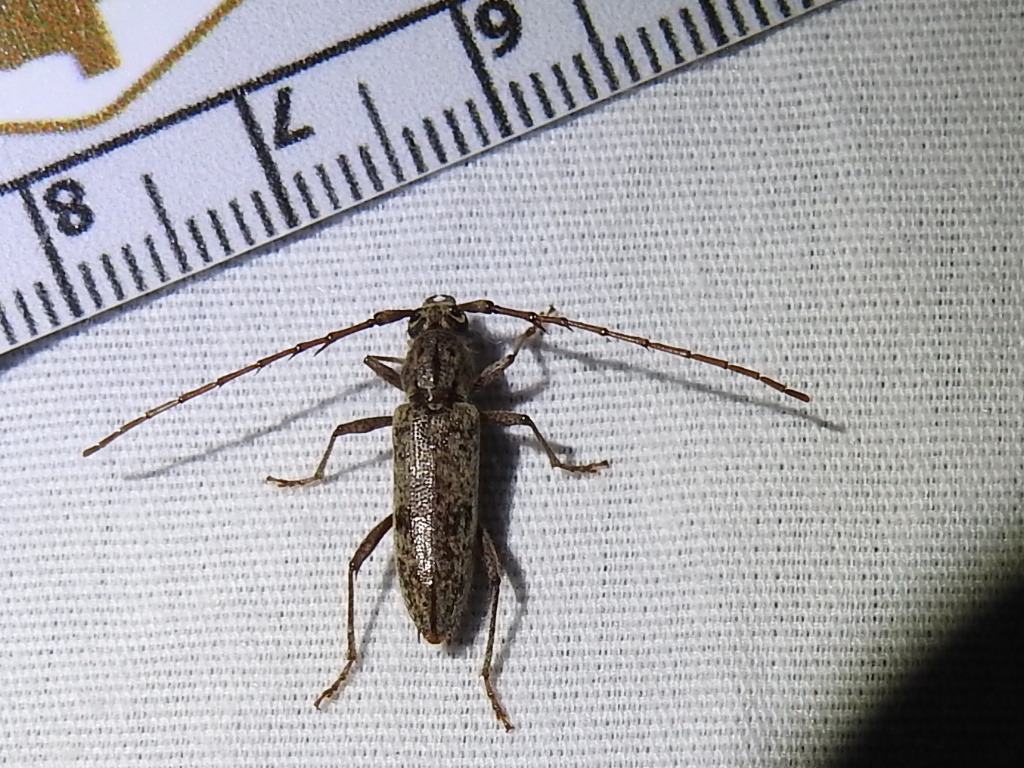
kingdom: Animalia
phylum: Arthropoda
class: Insecta
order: Coleoptera
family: Cerambycidae
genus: Elaphidion
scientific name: Elaphidion mucronatum
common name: Spined oak borer
